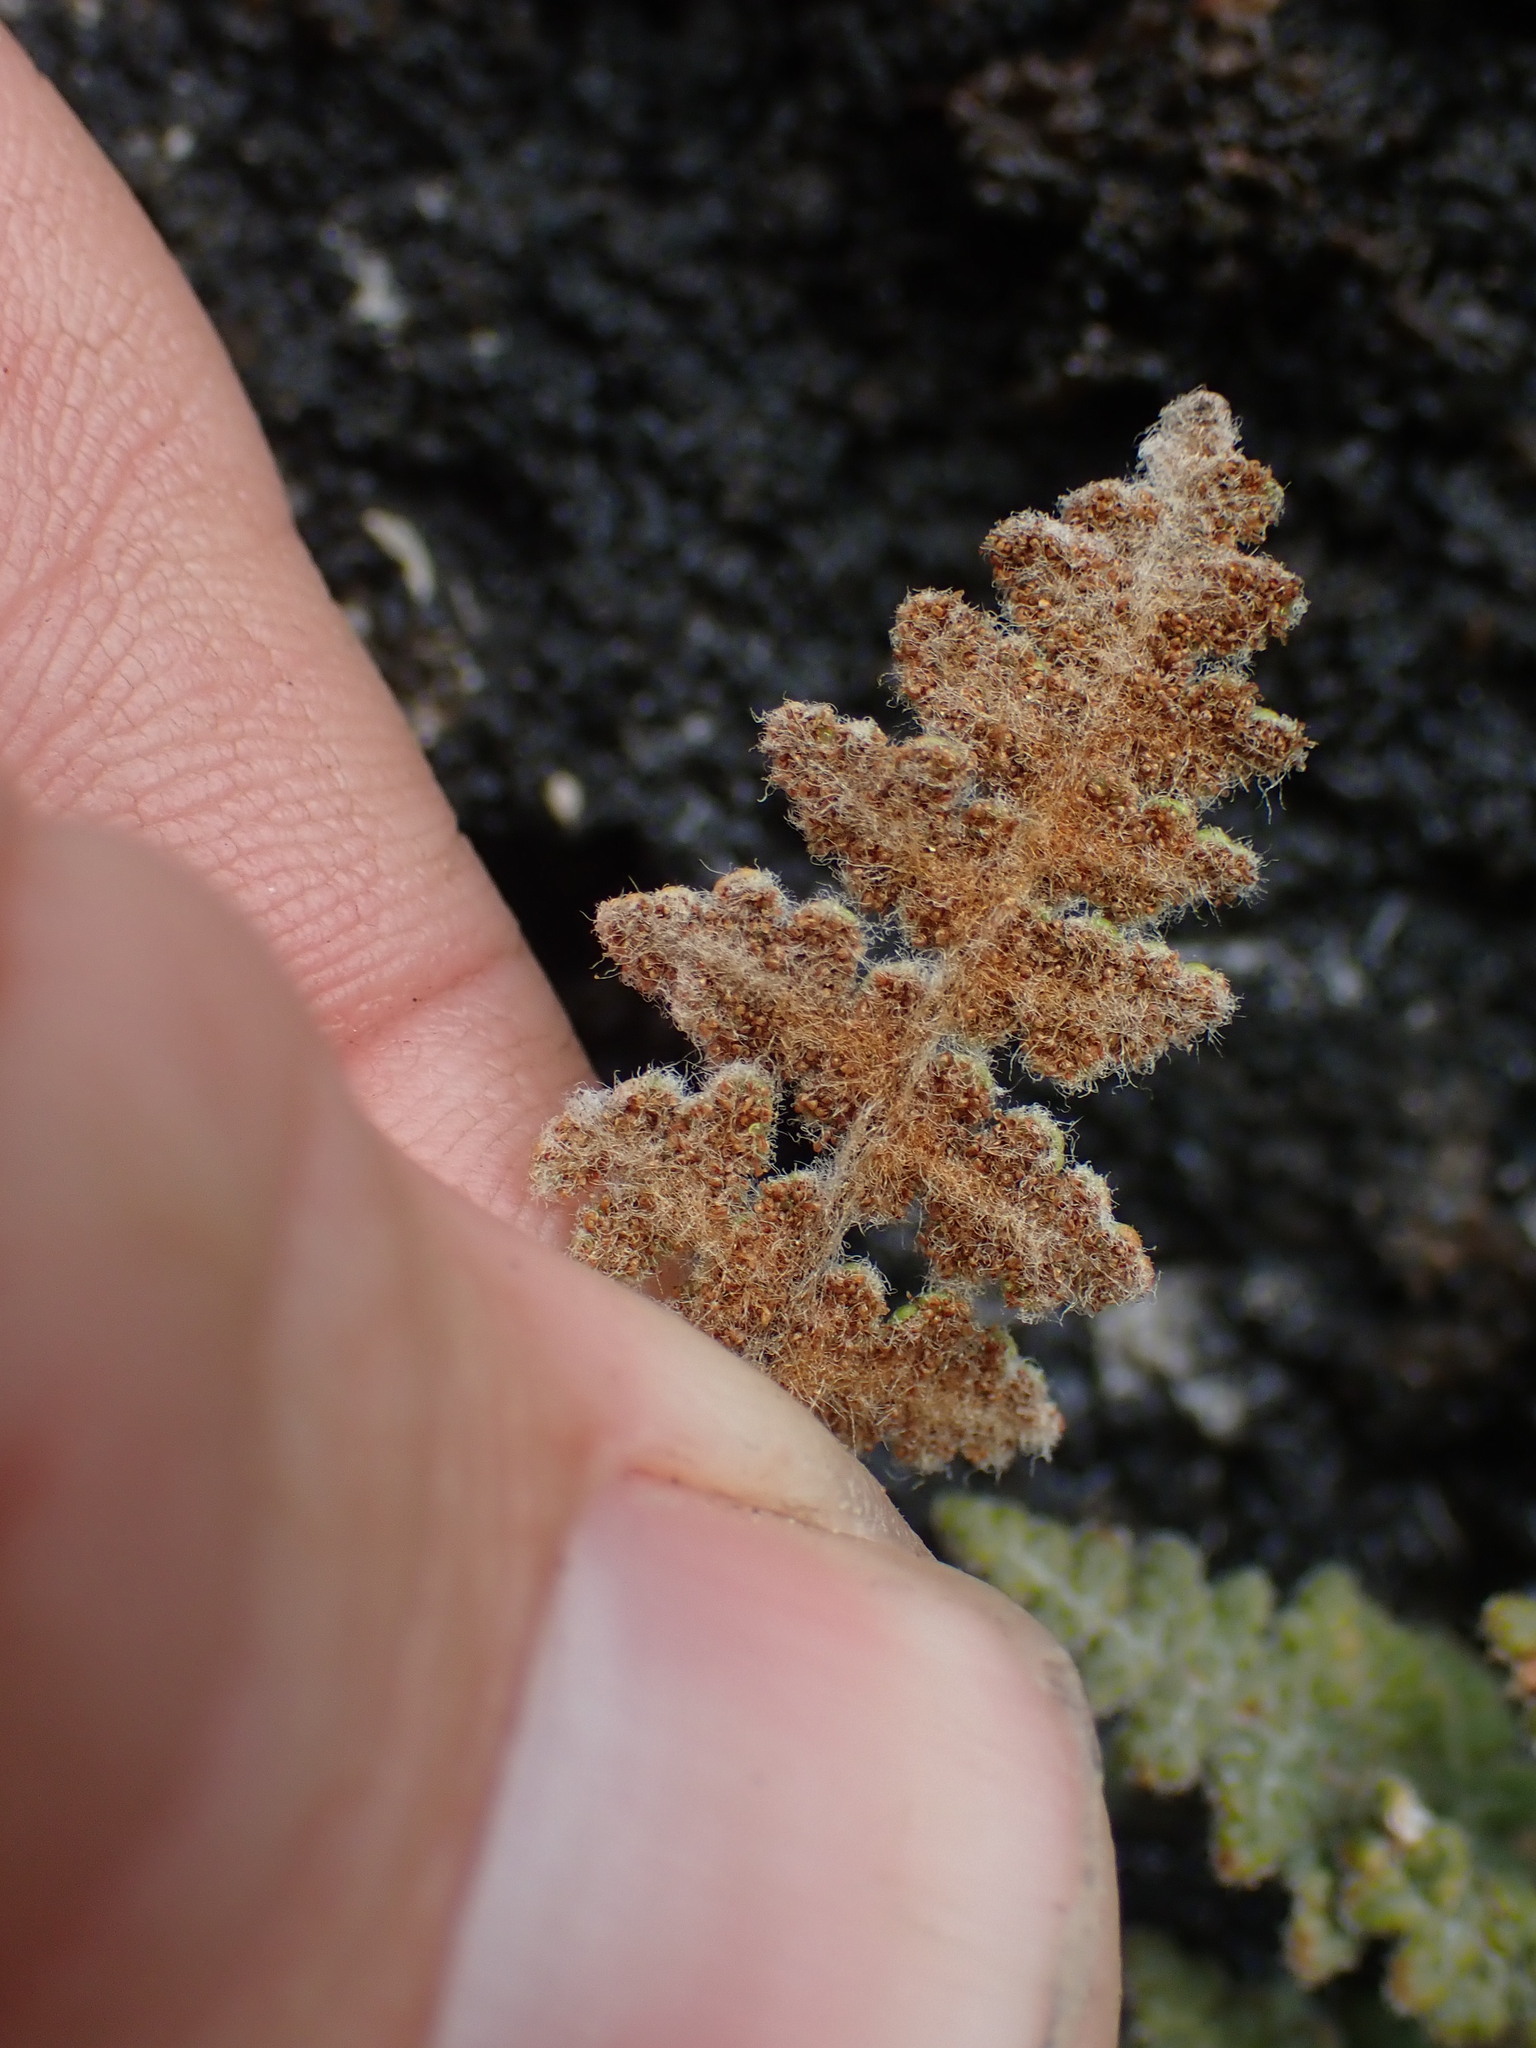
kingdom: Plantae
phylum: Tracheophyta
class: Polypodiopsida
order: Polypodiales
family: Pteridaceae
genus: Myriopteris
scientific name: Myriopteris gracilis
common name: Fee's lip fern
